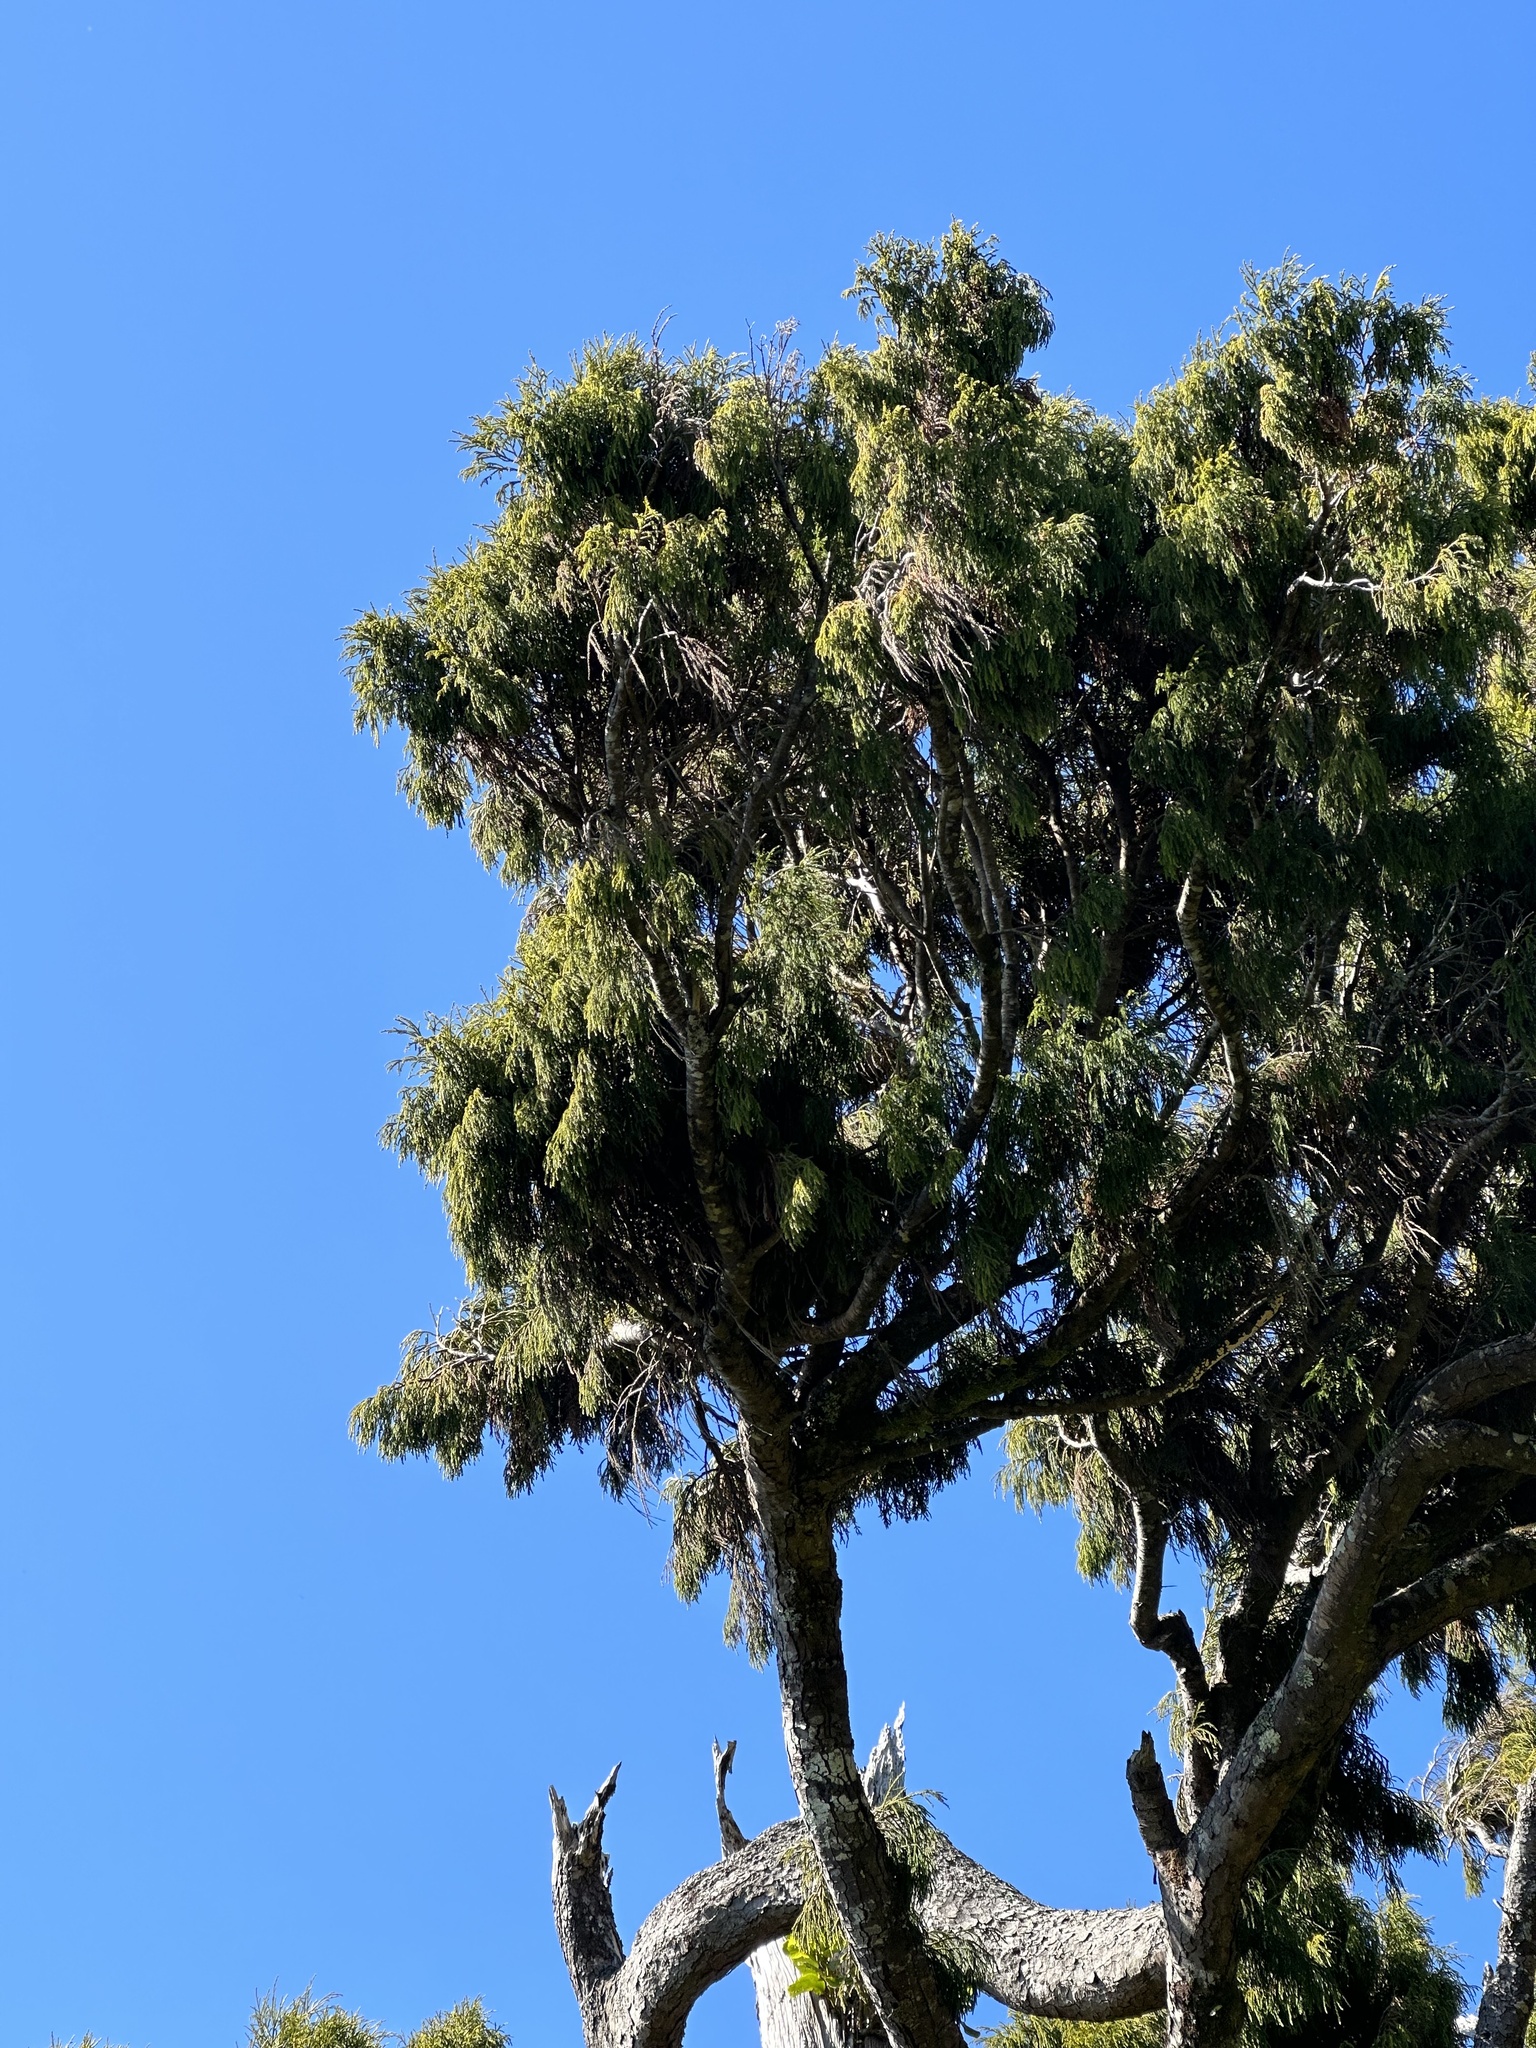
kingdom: Plantae
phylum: Tracheophyta
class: Pinopsida
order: Pinales
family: Podocarpaceae
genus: Dacrydium
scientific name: Dacrydium cupressinum
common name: Red pine
